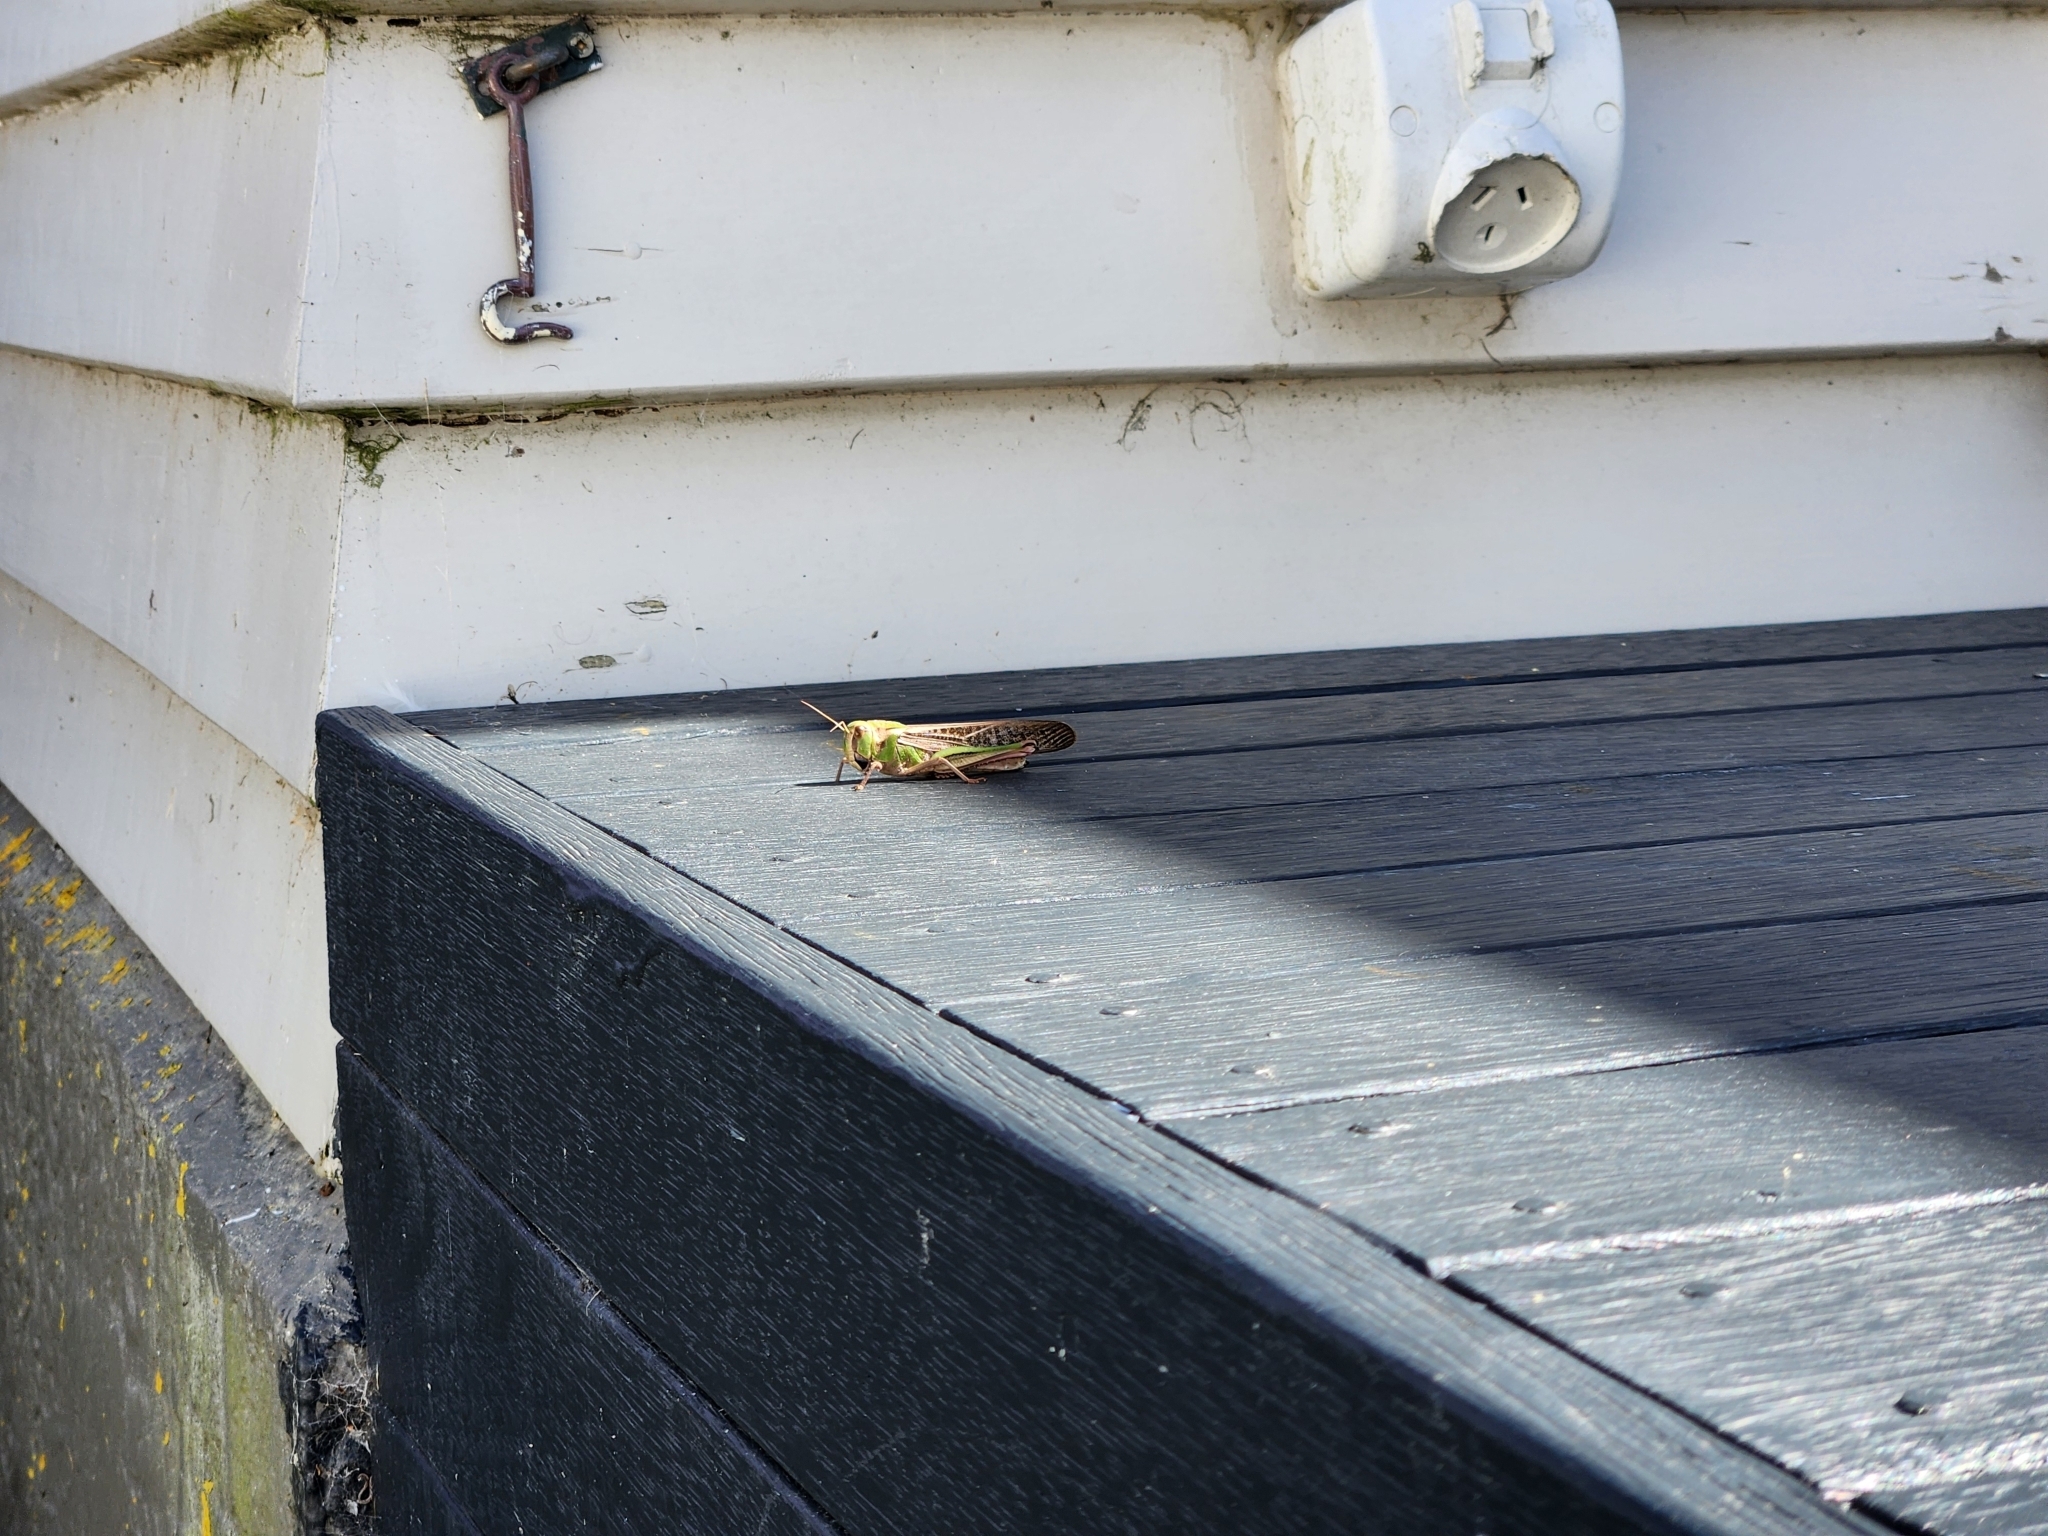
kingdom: Animalia
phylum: Arthropoda
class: Insecta
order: Orthoptera
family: Acrididae
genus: Locusta
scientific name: Locusta migratoria
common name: Migratory locust
